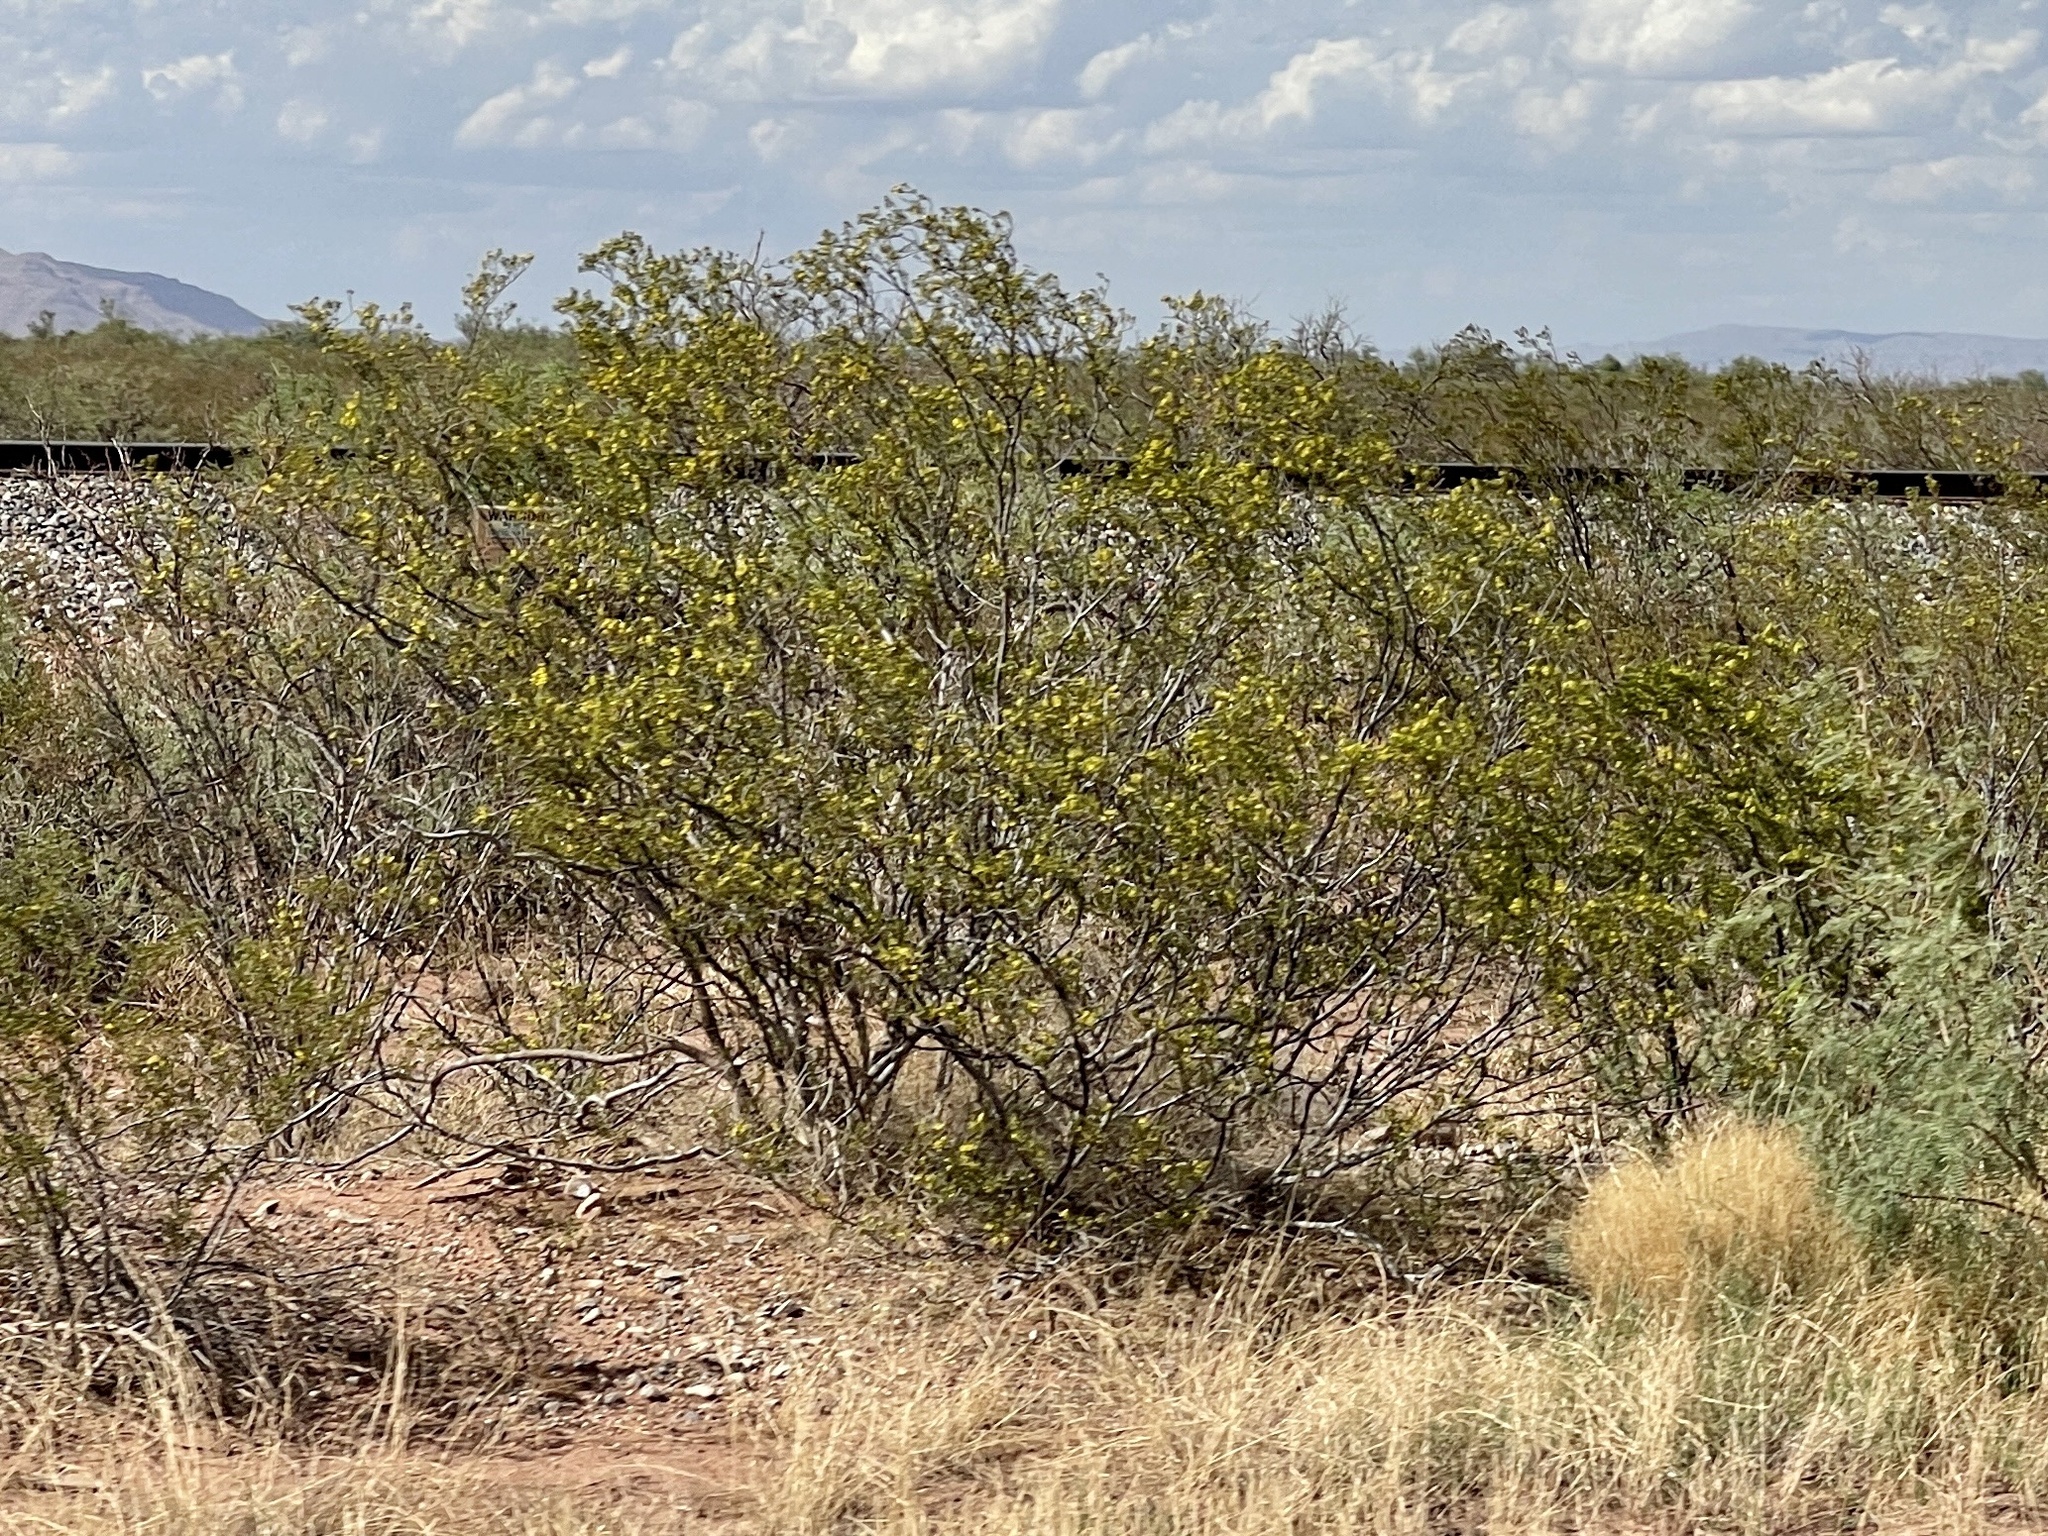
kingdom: Plantae
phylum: Tracheophyta
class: Magnoliopsida
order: Zygophyllales
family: Zygophyllaceae
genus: Larrea
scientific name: Larrea tridentata
